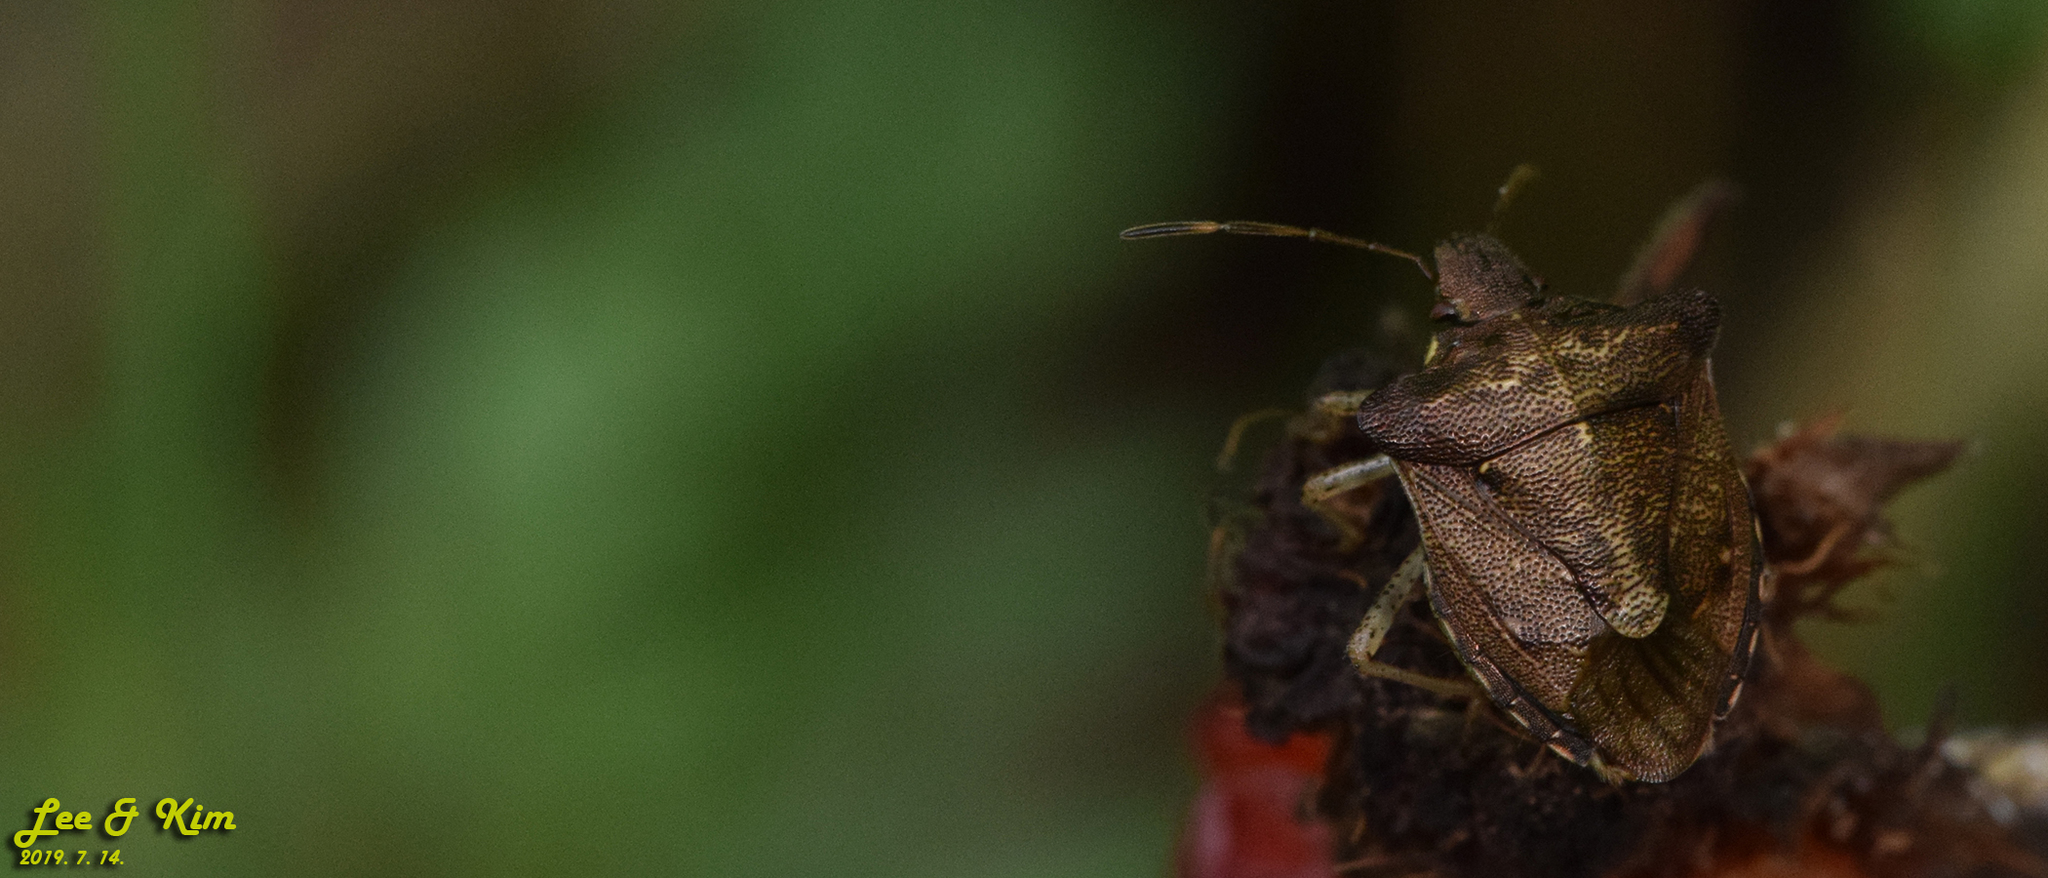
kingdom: Animalia
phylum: Arthropoda
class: Insecta
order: Hemiptera
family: Pentatomidae
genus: Carbula
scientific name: Carbula putoni
